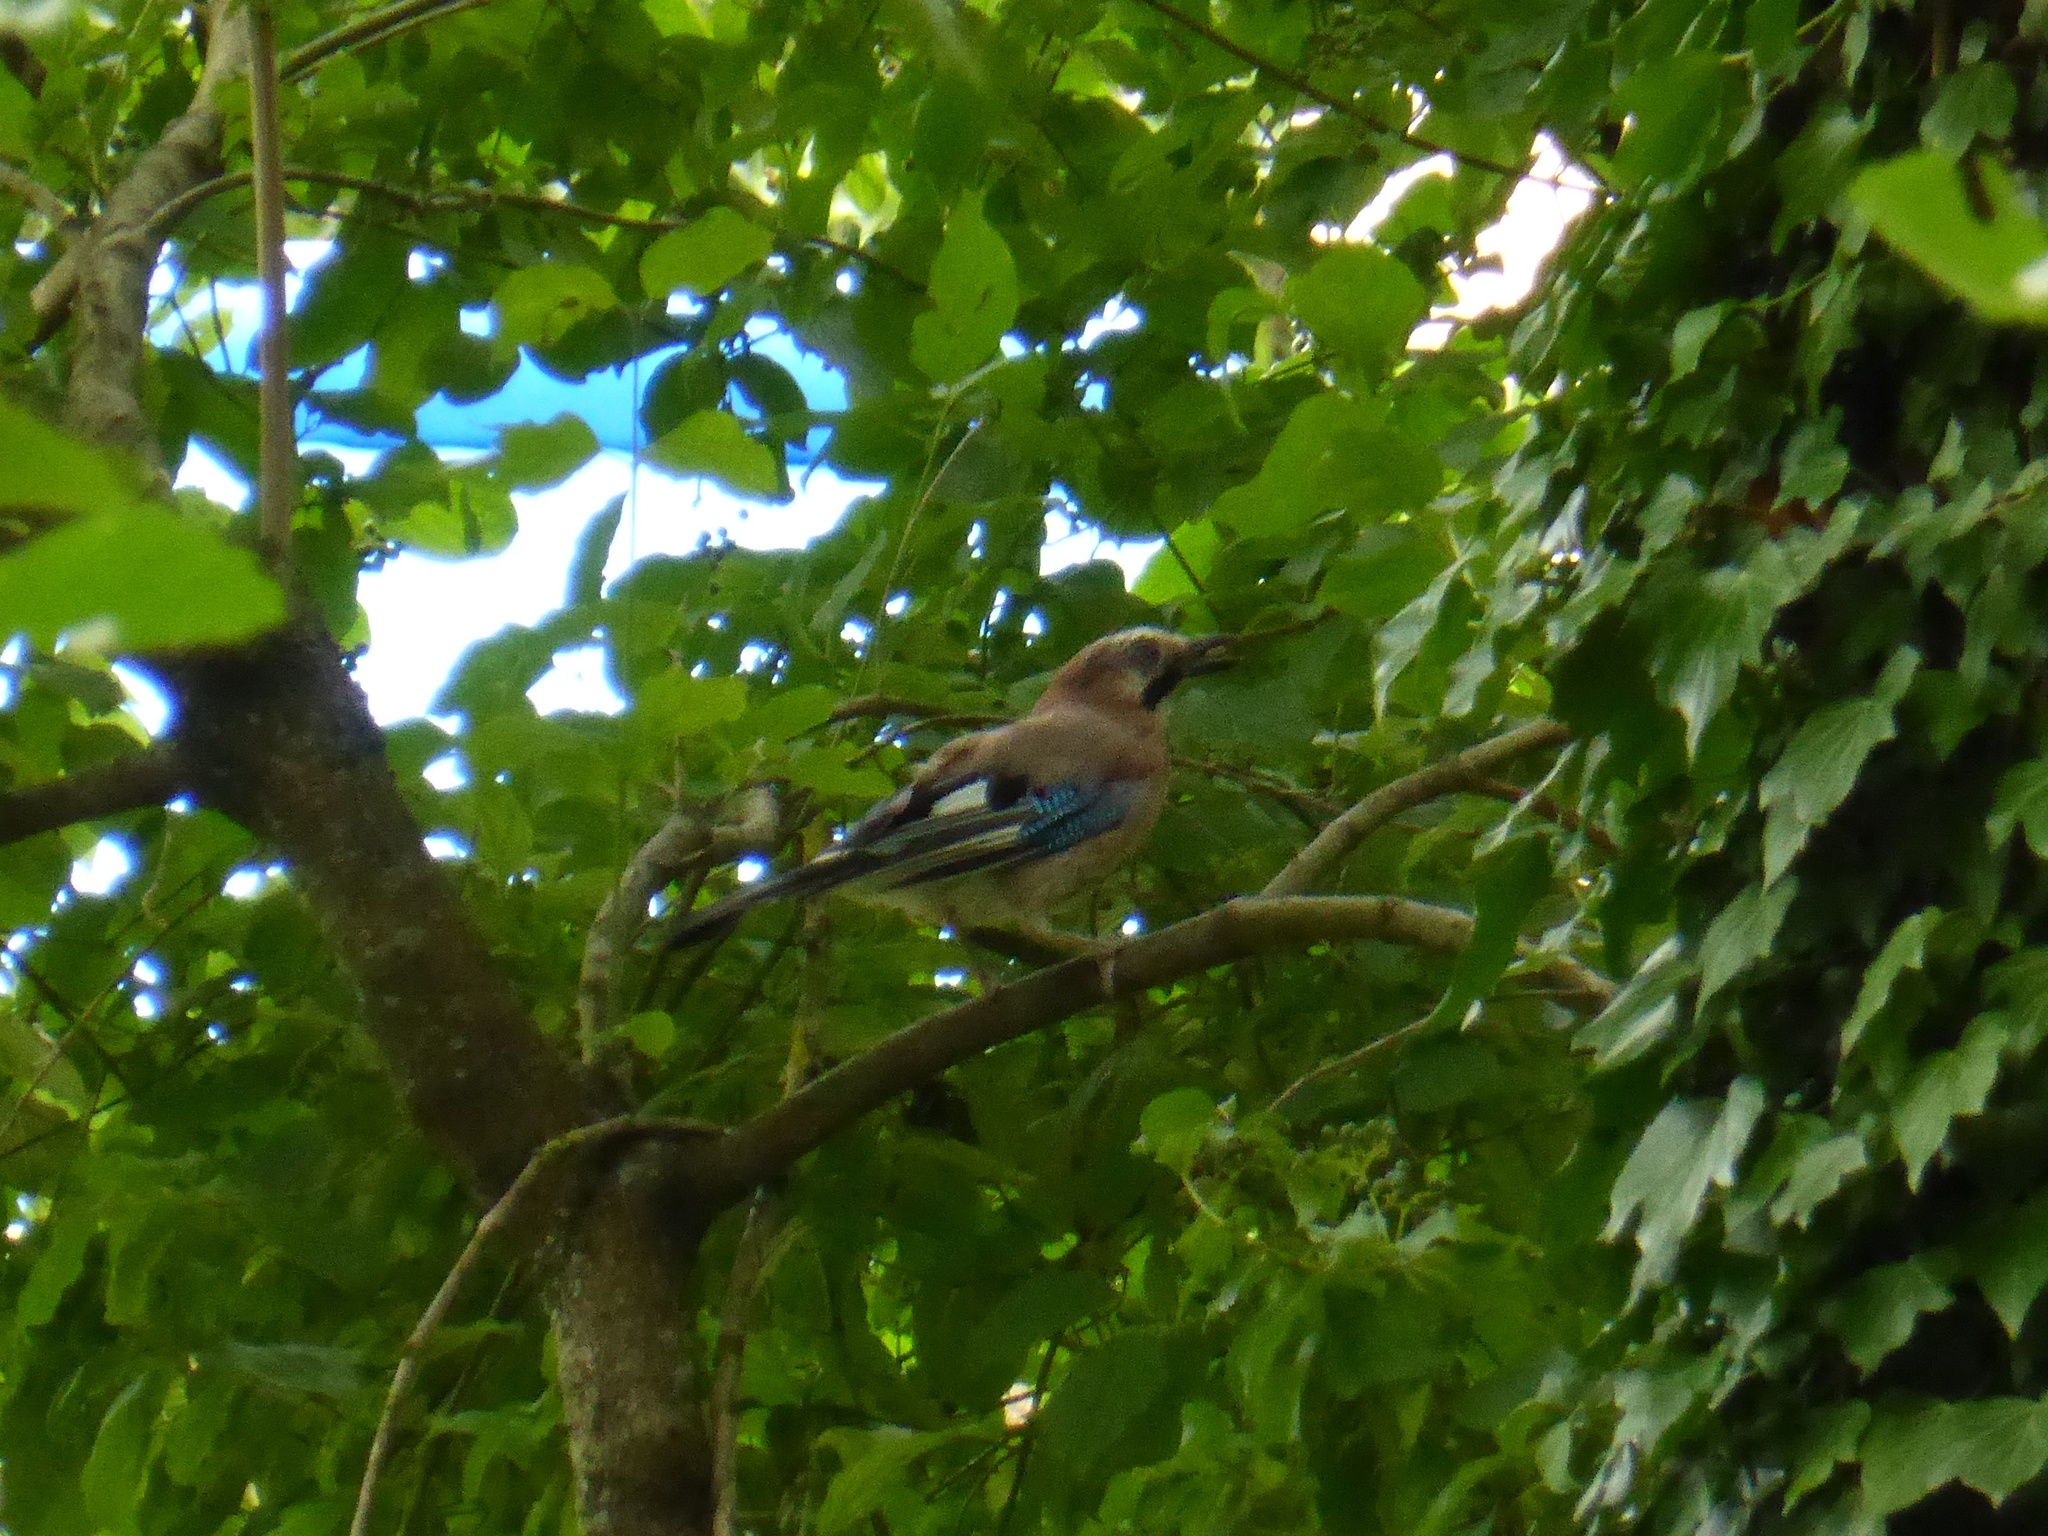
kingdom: Animalia
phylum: Chordata
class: Aves
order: Passeriformes
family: Corvidae
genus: Garrulus
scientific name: Garrulus glandarius
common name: Eurasian jay
